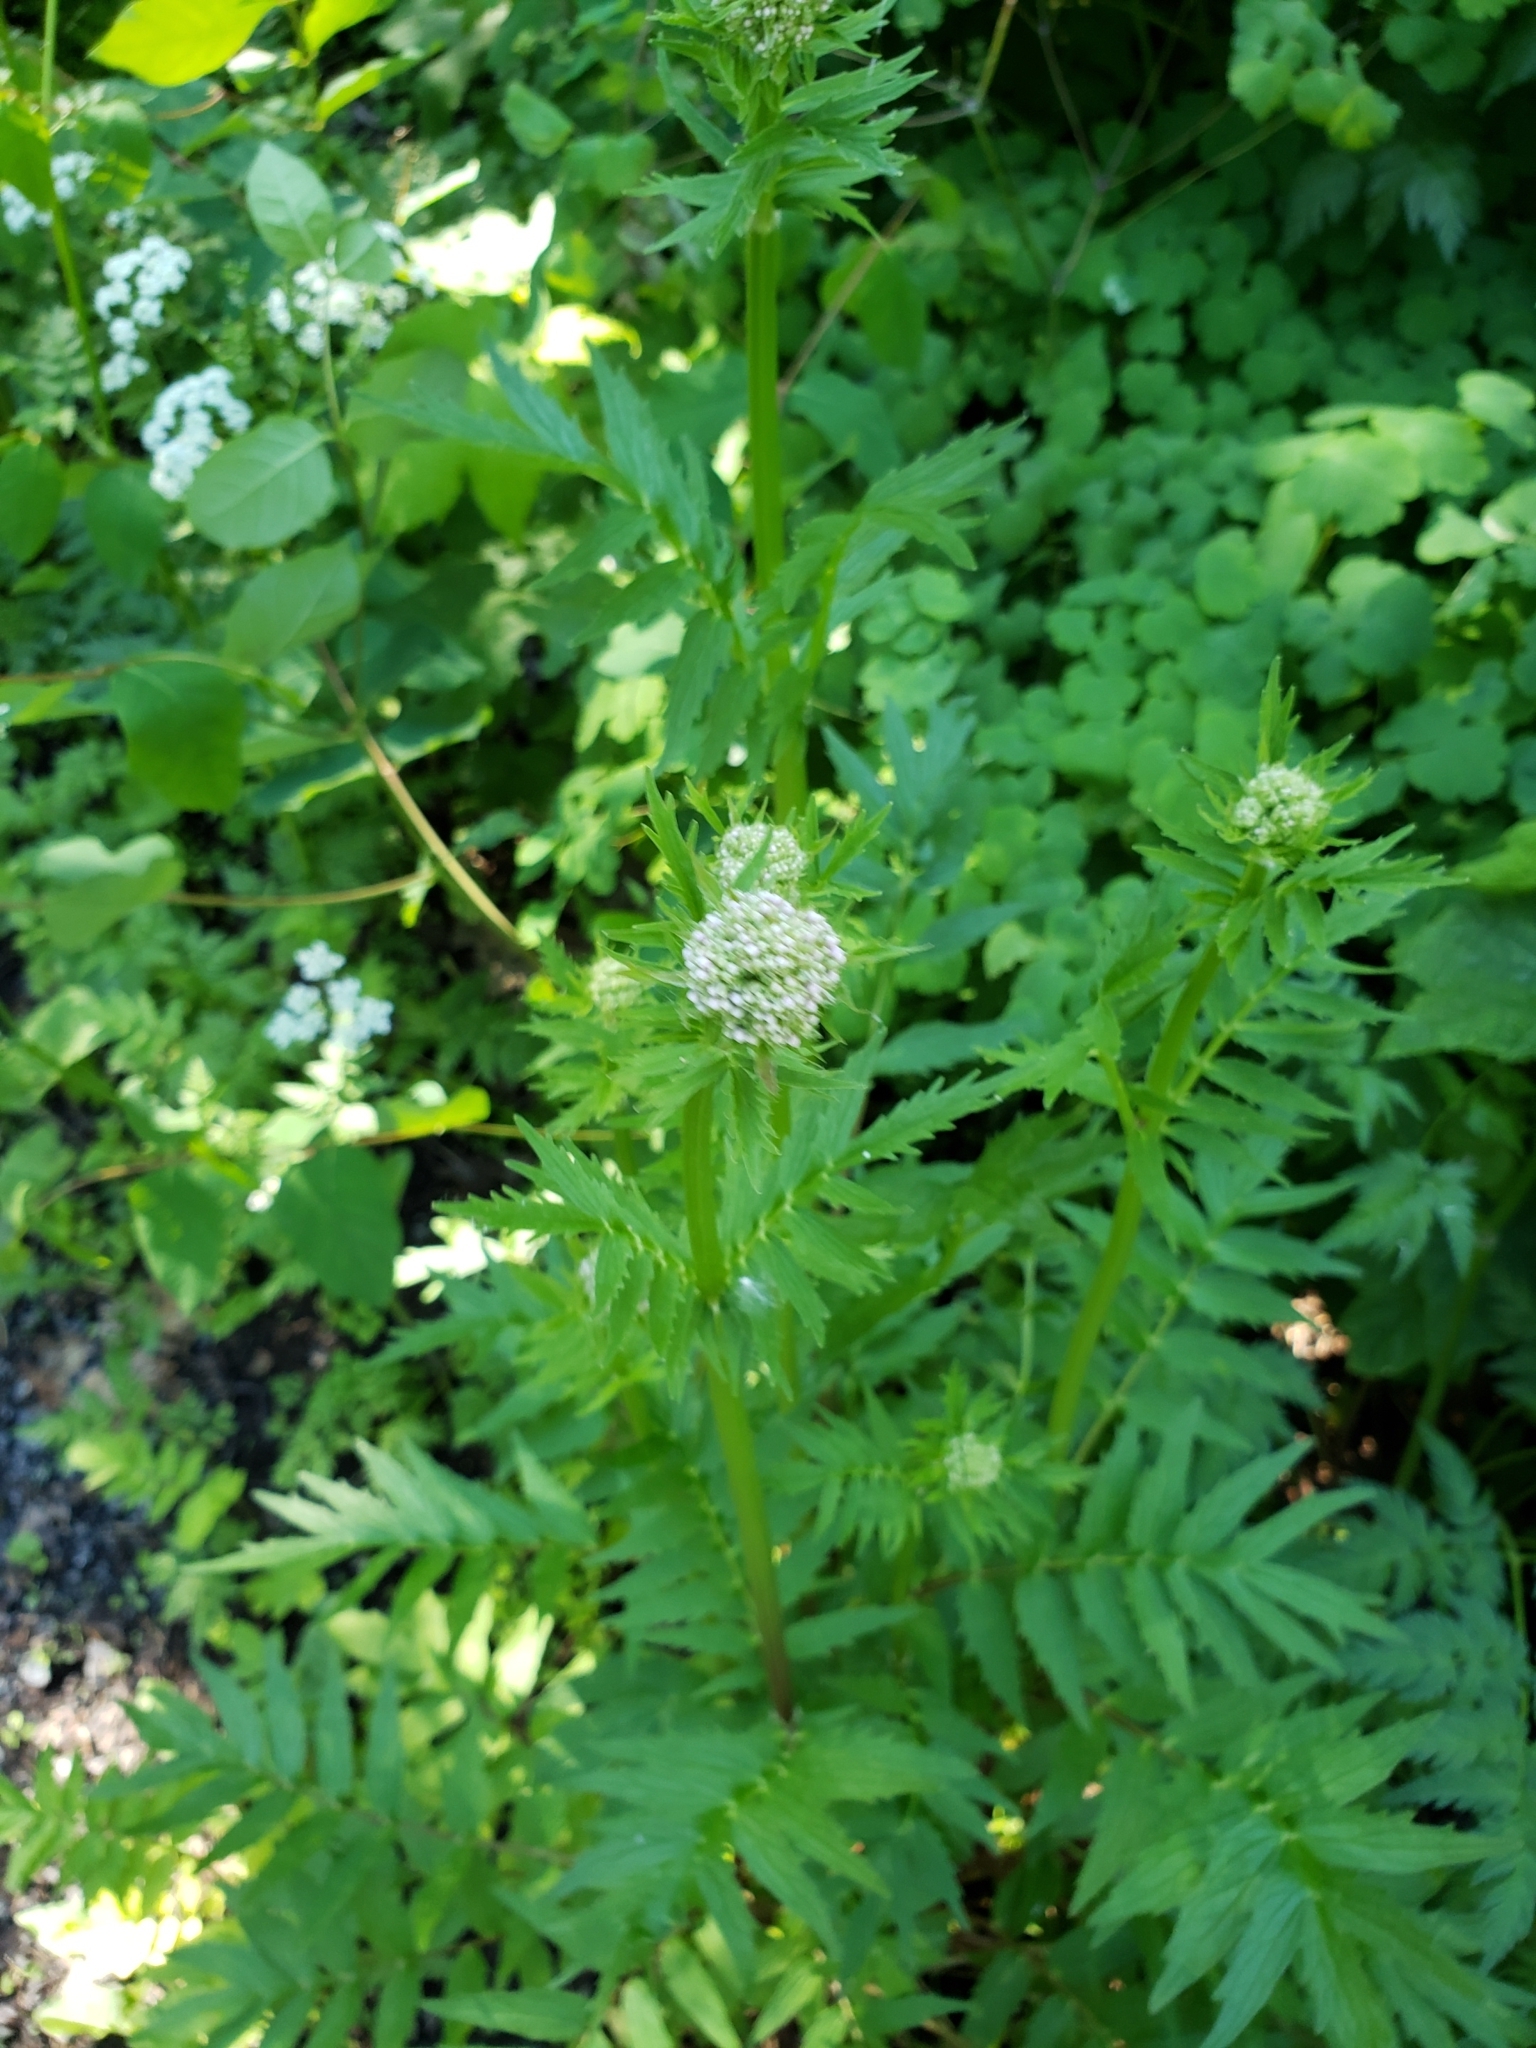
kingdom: Plantae
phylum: Tracheophyta
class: Magnoliopsida
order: Dipsacales
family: Caprifoliaceae
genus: Valeriana
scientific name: Valeriana officinalis
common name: Common valerian
